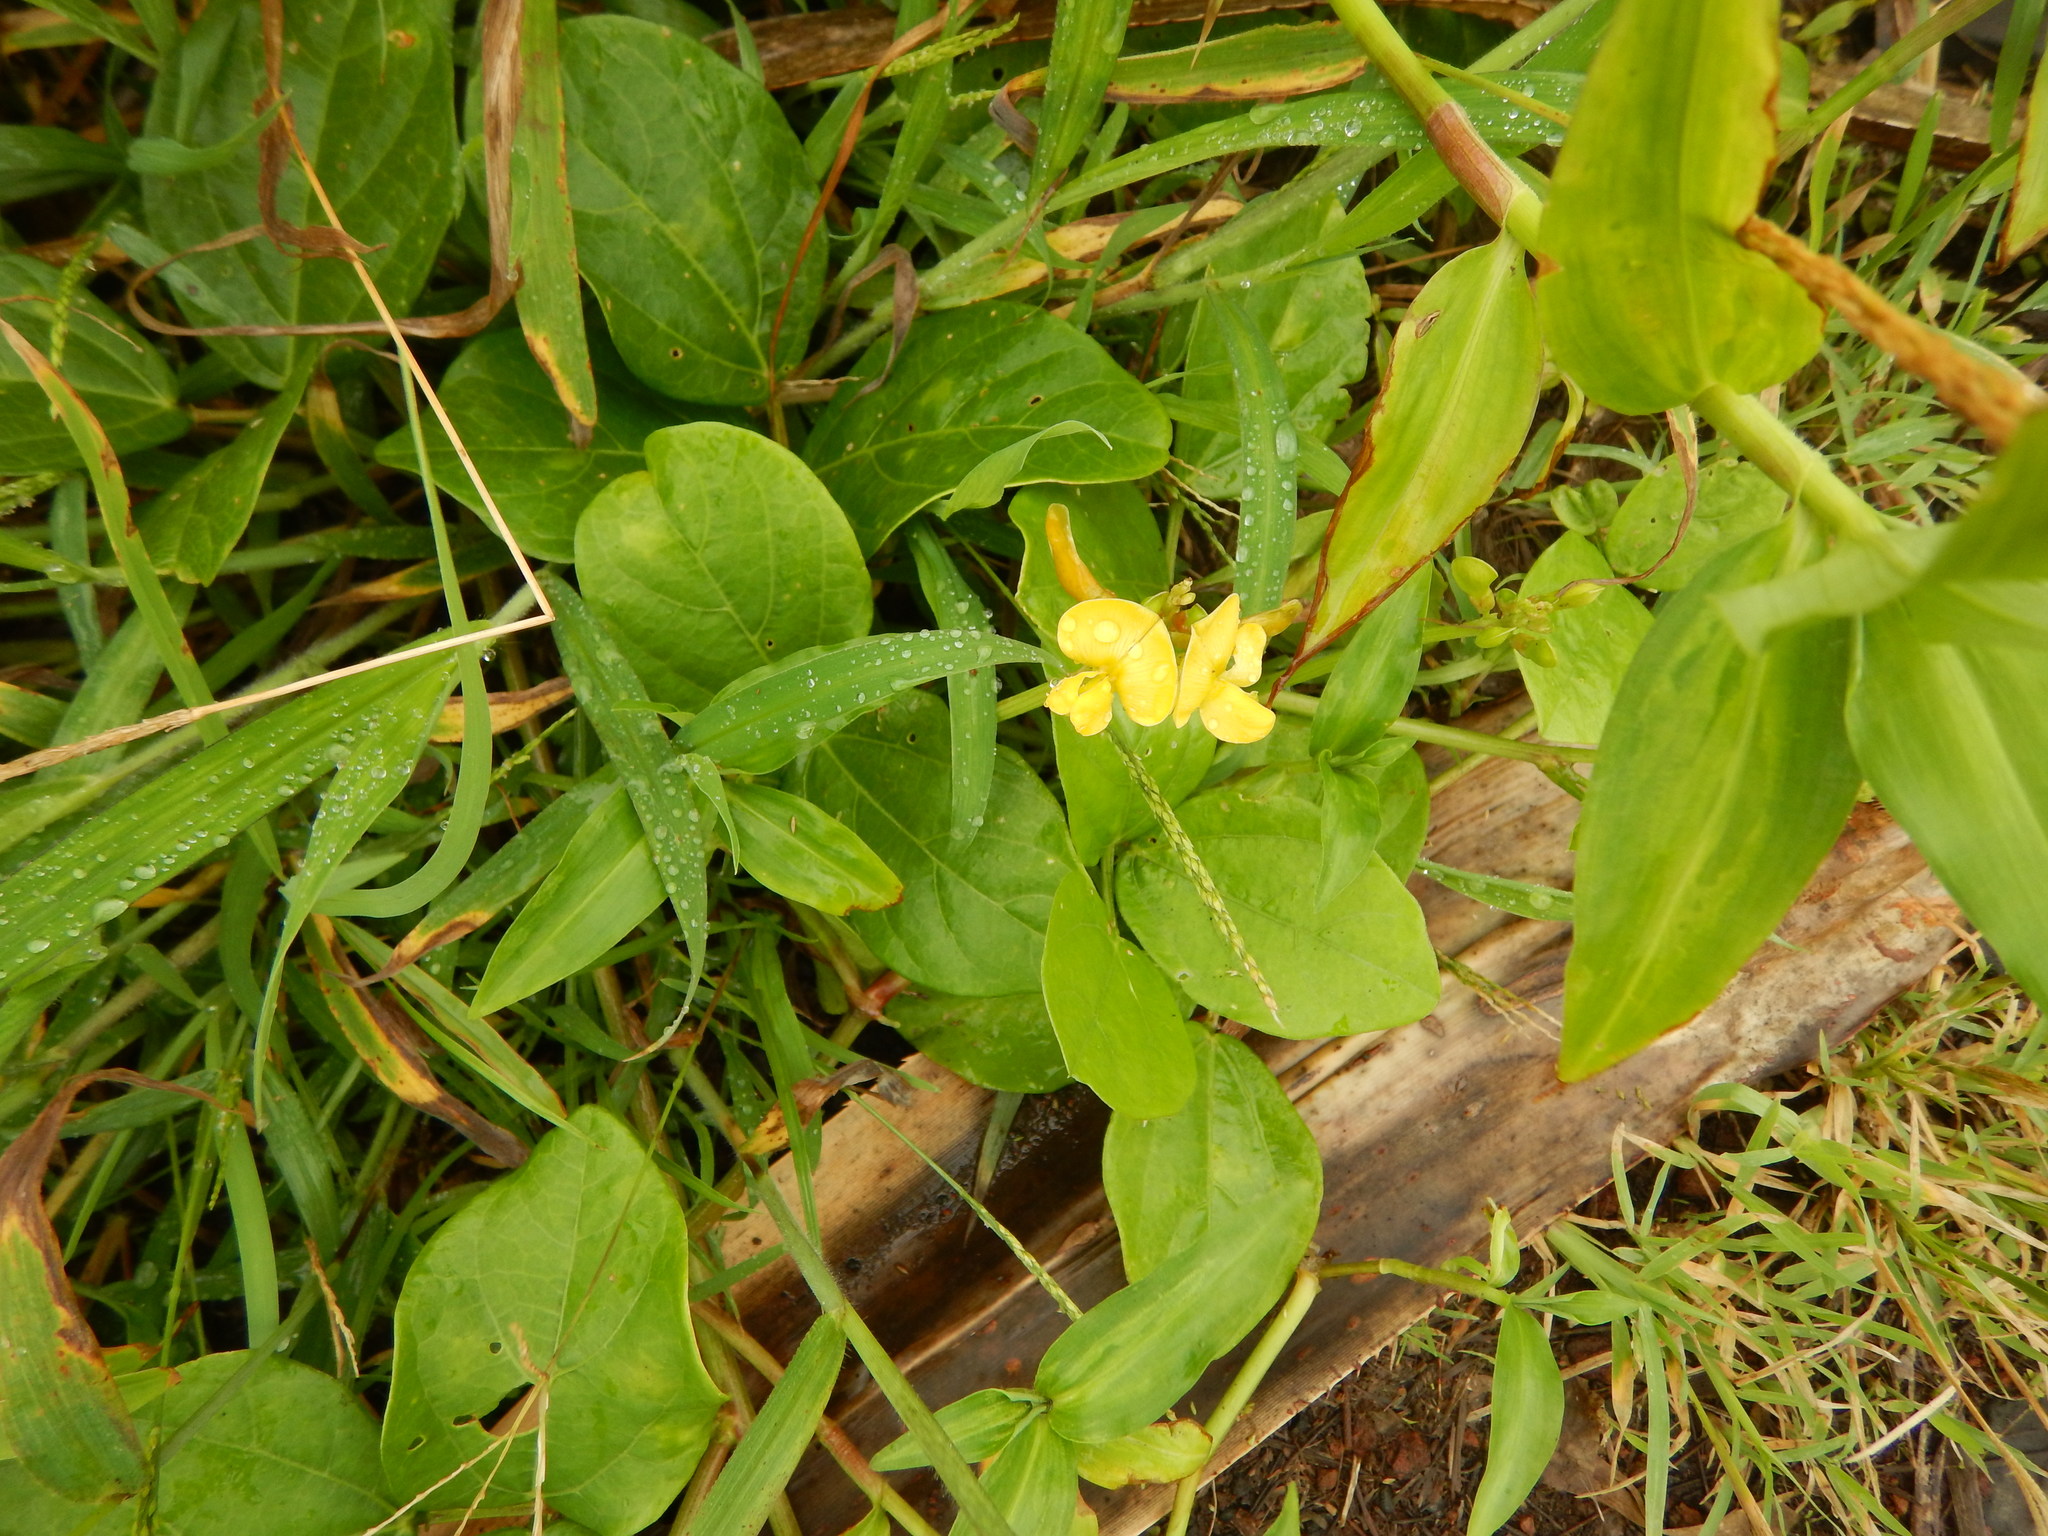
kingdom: Plantae
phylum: Tracheophyta
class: Magnoliopsida
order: Fabales
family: Fabaceae
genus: Vigna
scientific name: Vigna marina
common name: Dune-bean
